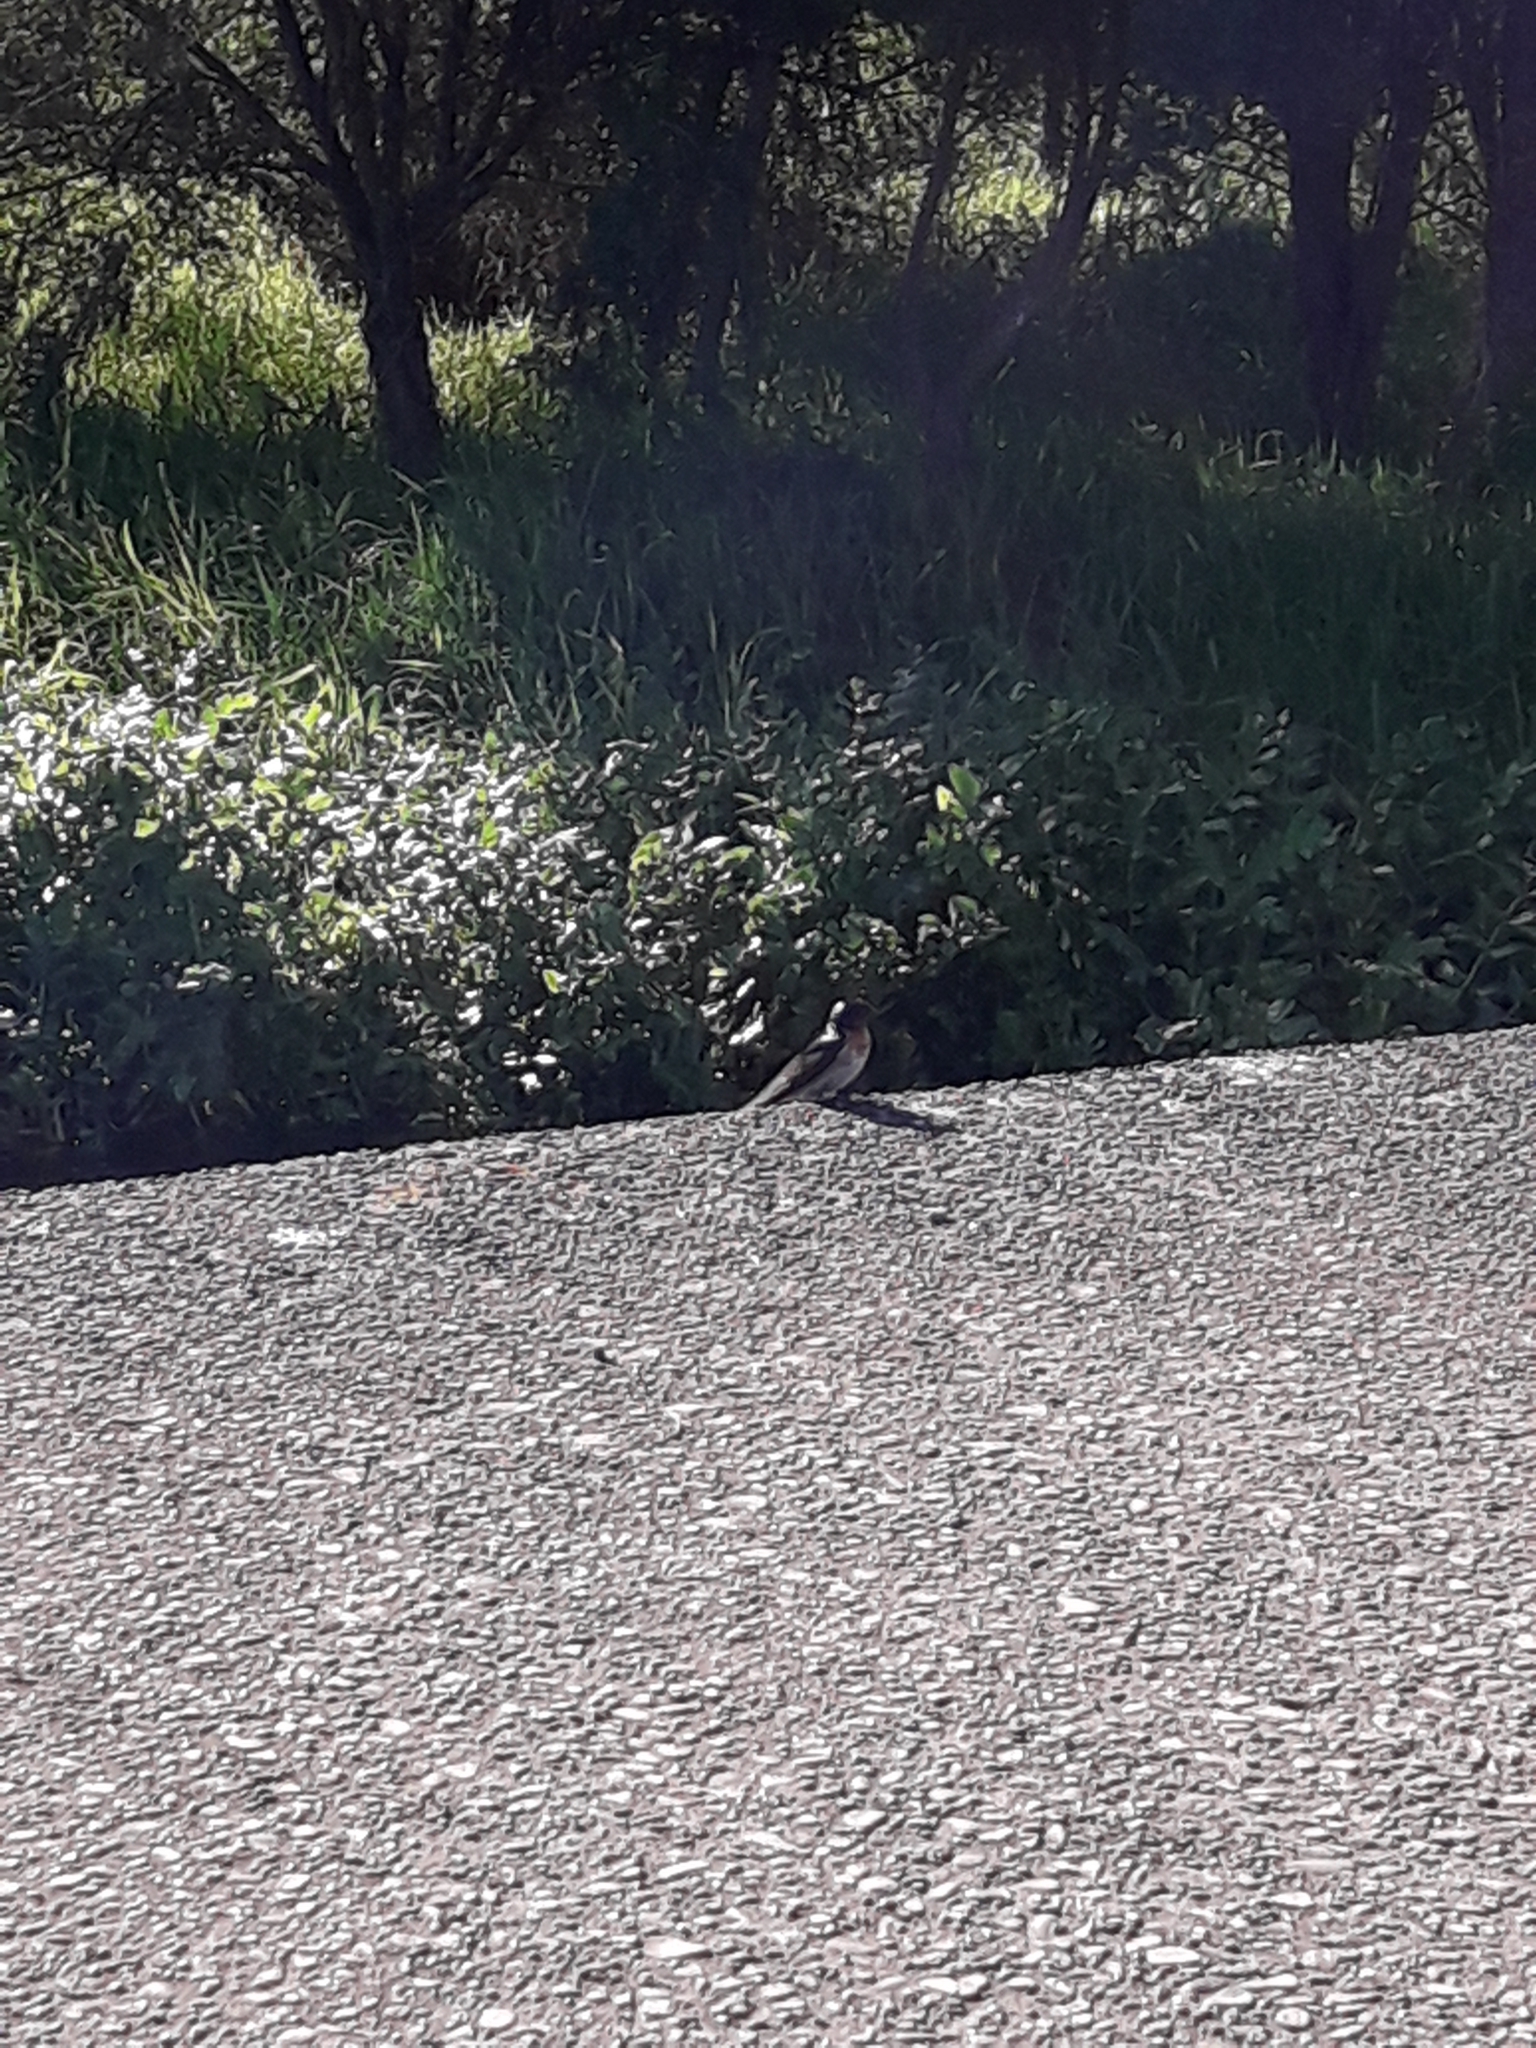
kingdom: Animalia
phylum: Chordata
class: Aves
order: Passeriformes
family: Hirundinidae
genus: Hirundo
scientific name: Hirundo neoxena
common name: Welcome swallow
